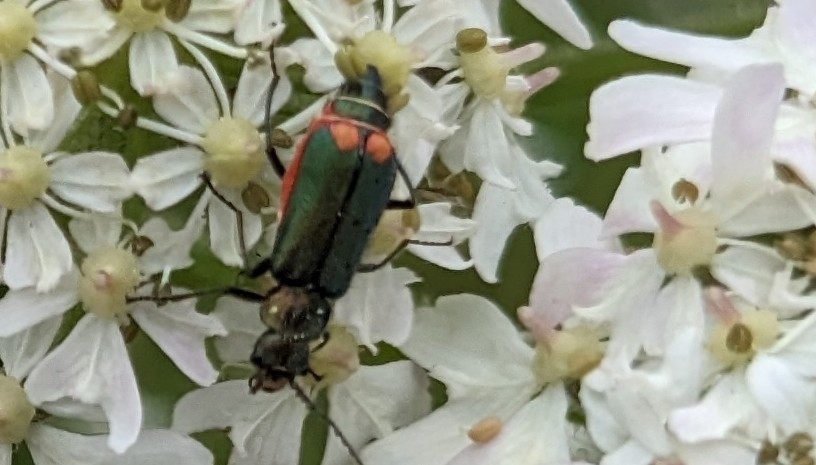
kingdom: Animalia
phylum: Arthropoda
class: Insecta
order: Coleoptera
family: Melyridae
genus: Malachius
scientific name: Malachius bipustulatus
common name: Malachite beetle
